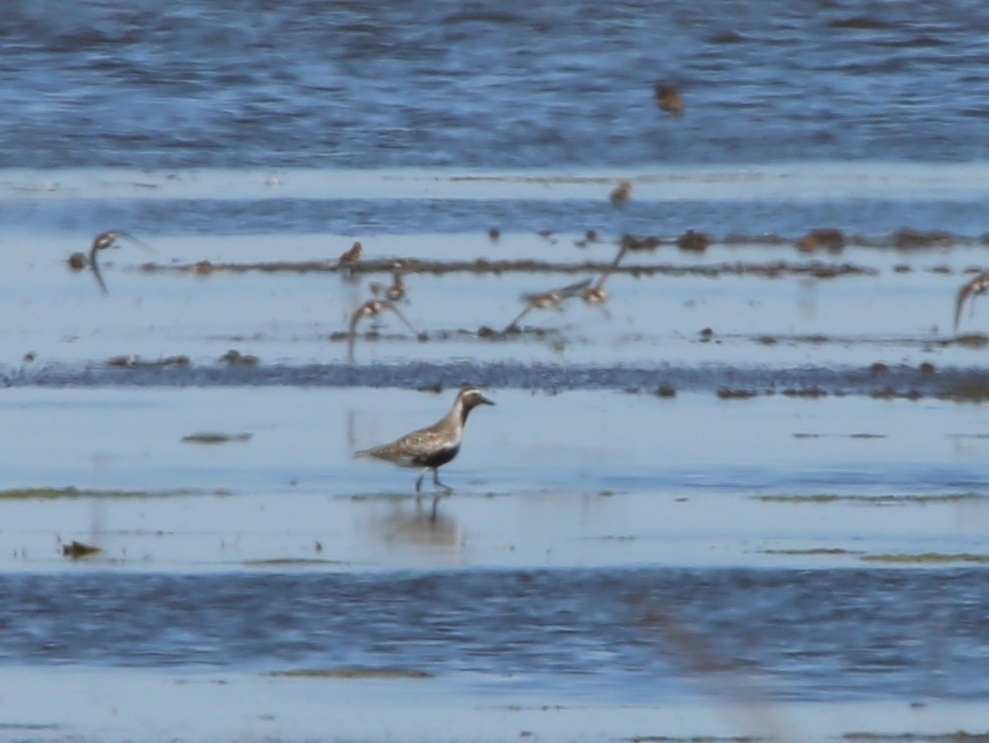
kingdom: Animalia
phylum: Chordata
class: Aves
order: Charadriiformes
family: Charadriidae
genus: Pluvialis
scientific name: Pluvialis squatarola
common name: Grey plover
